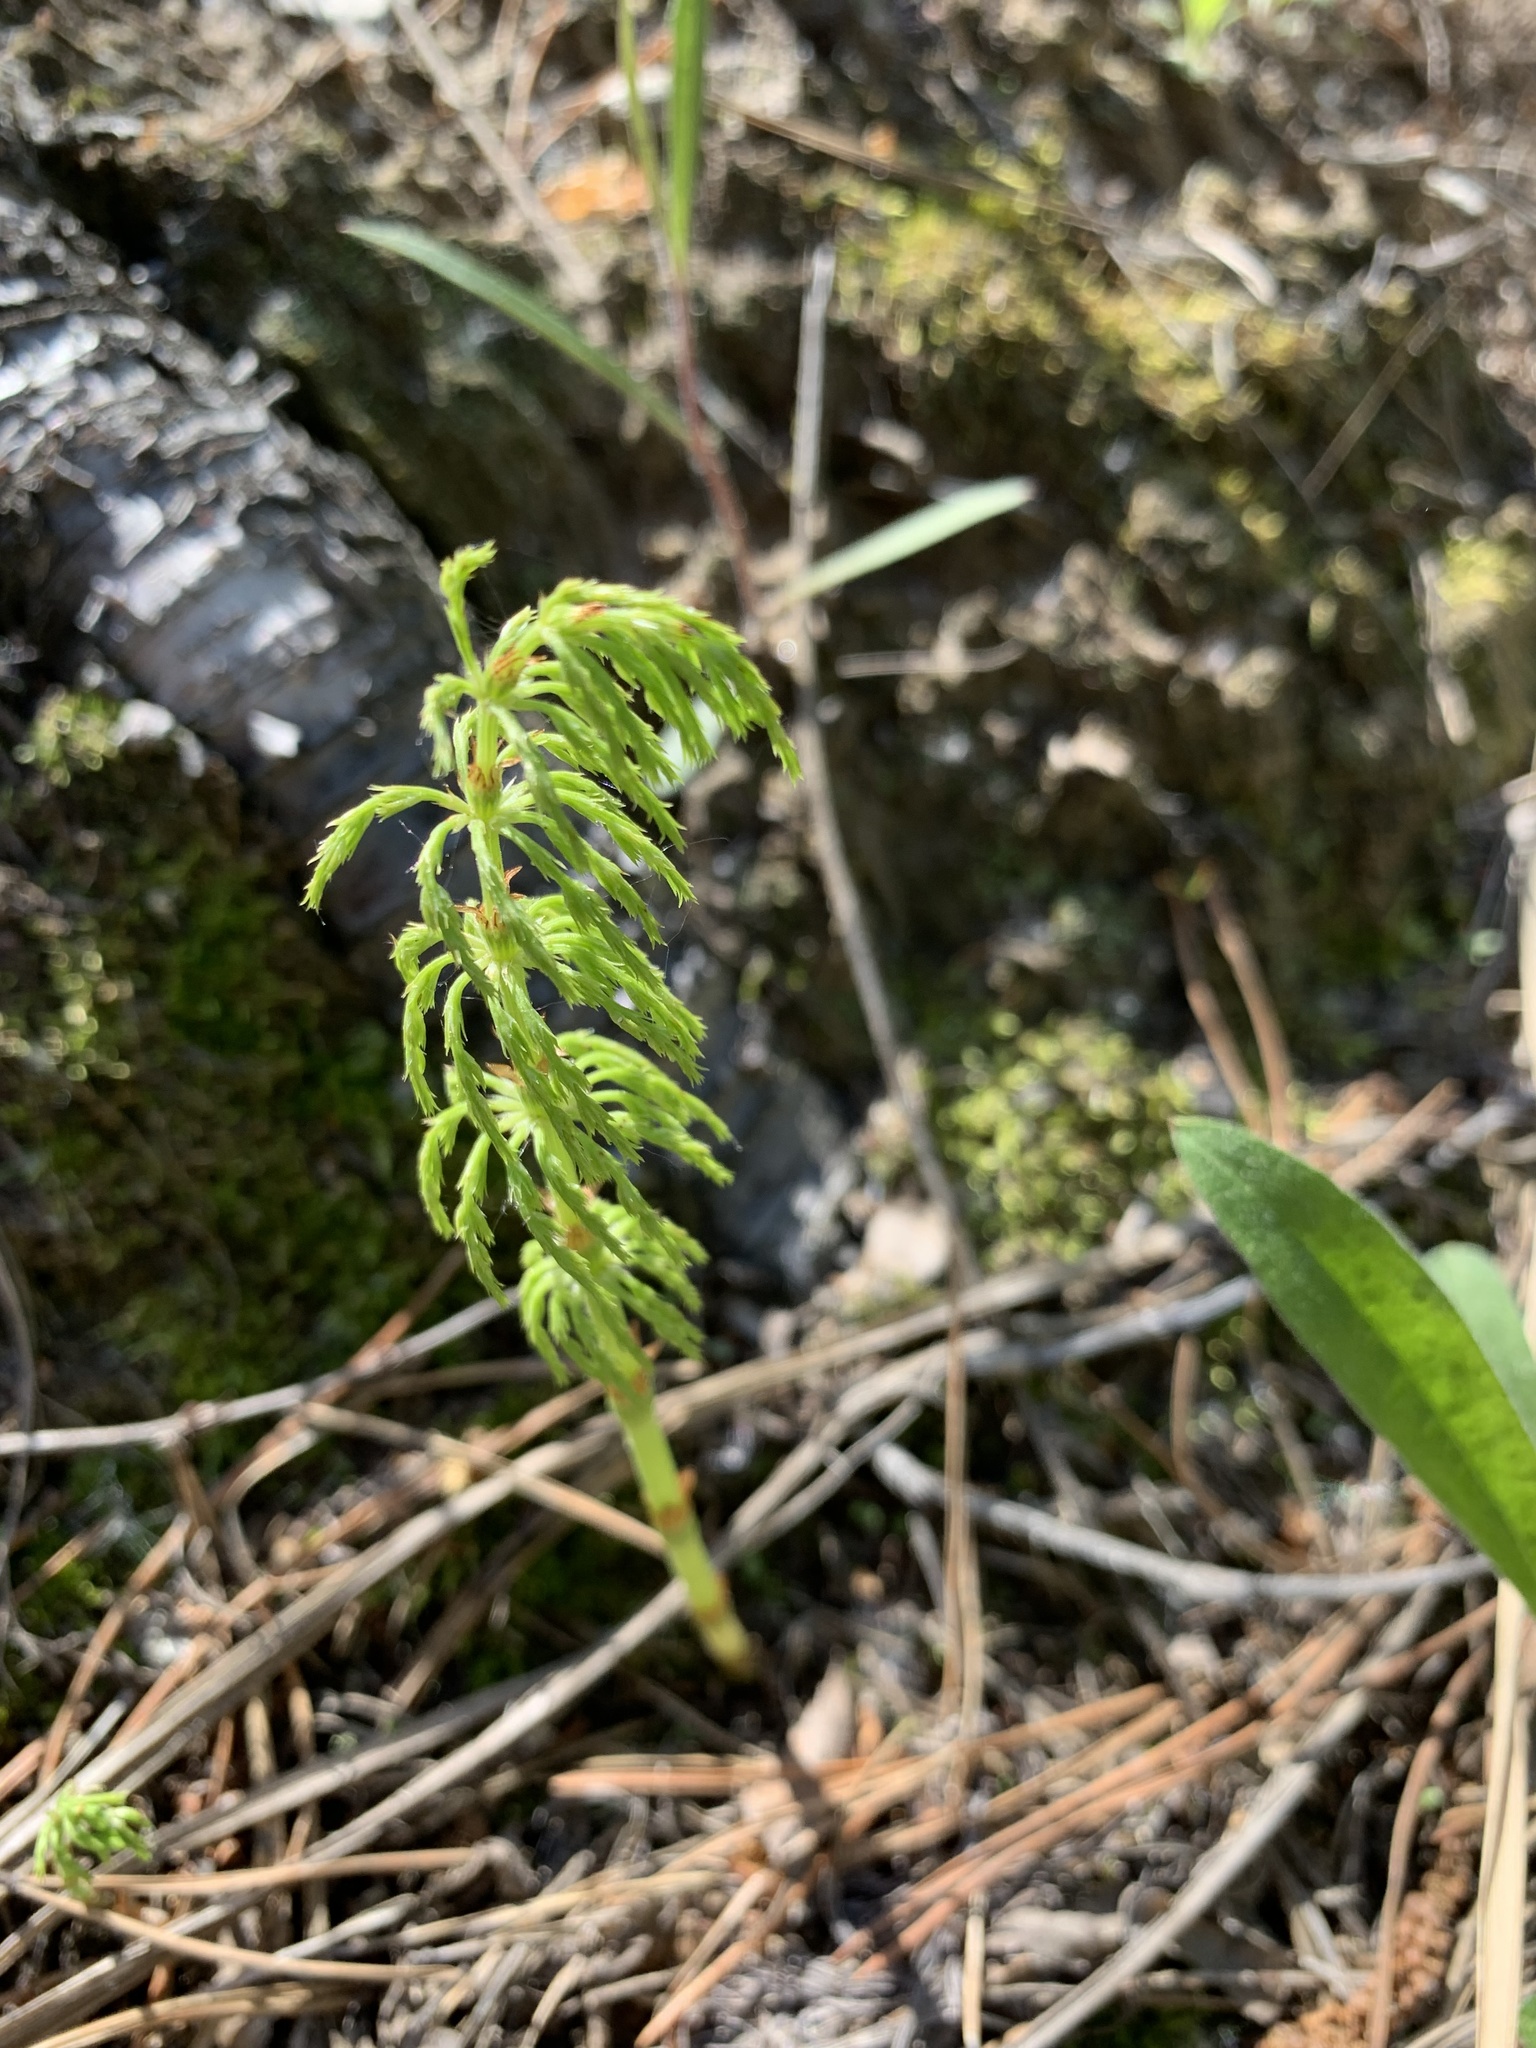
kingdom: Plantae
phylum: Tracheophyta
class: Polypodiopsida
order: Equisetales
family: Equisetaceae
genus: Equisetum
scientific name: Equisetum sylvaticum
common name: Wood horsetail
